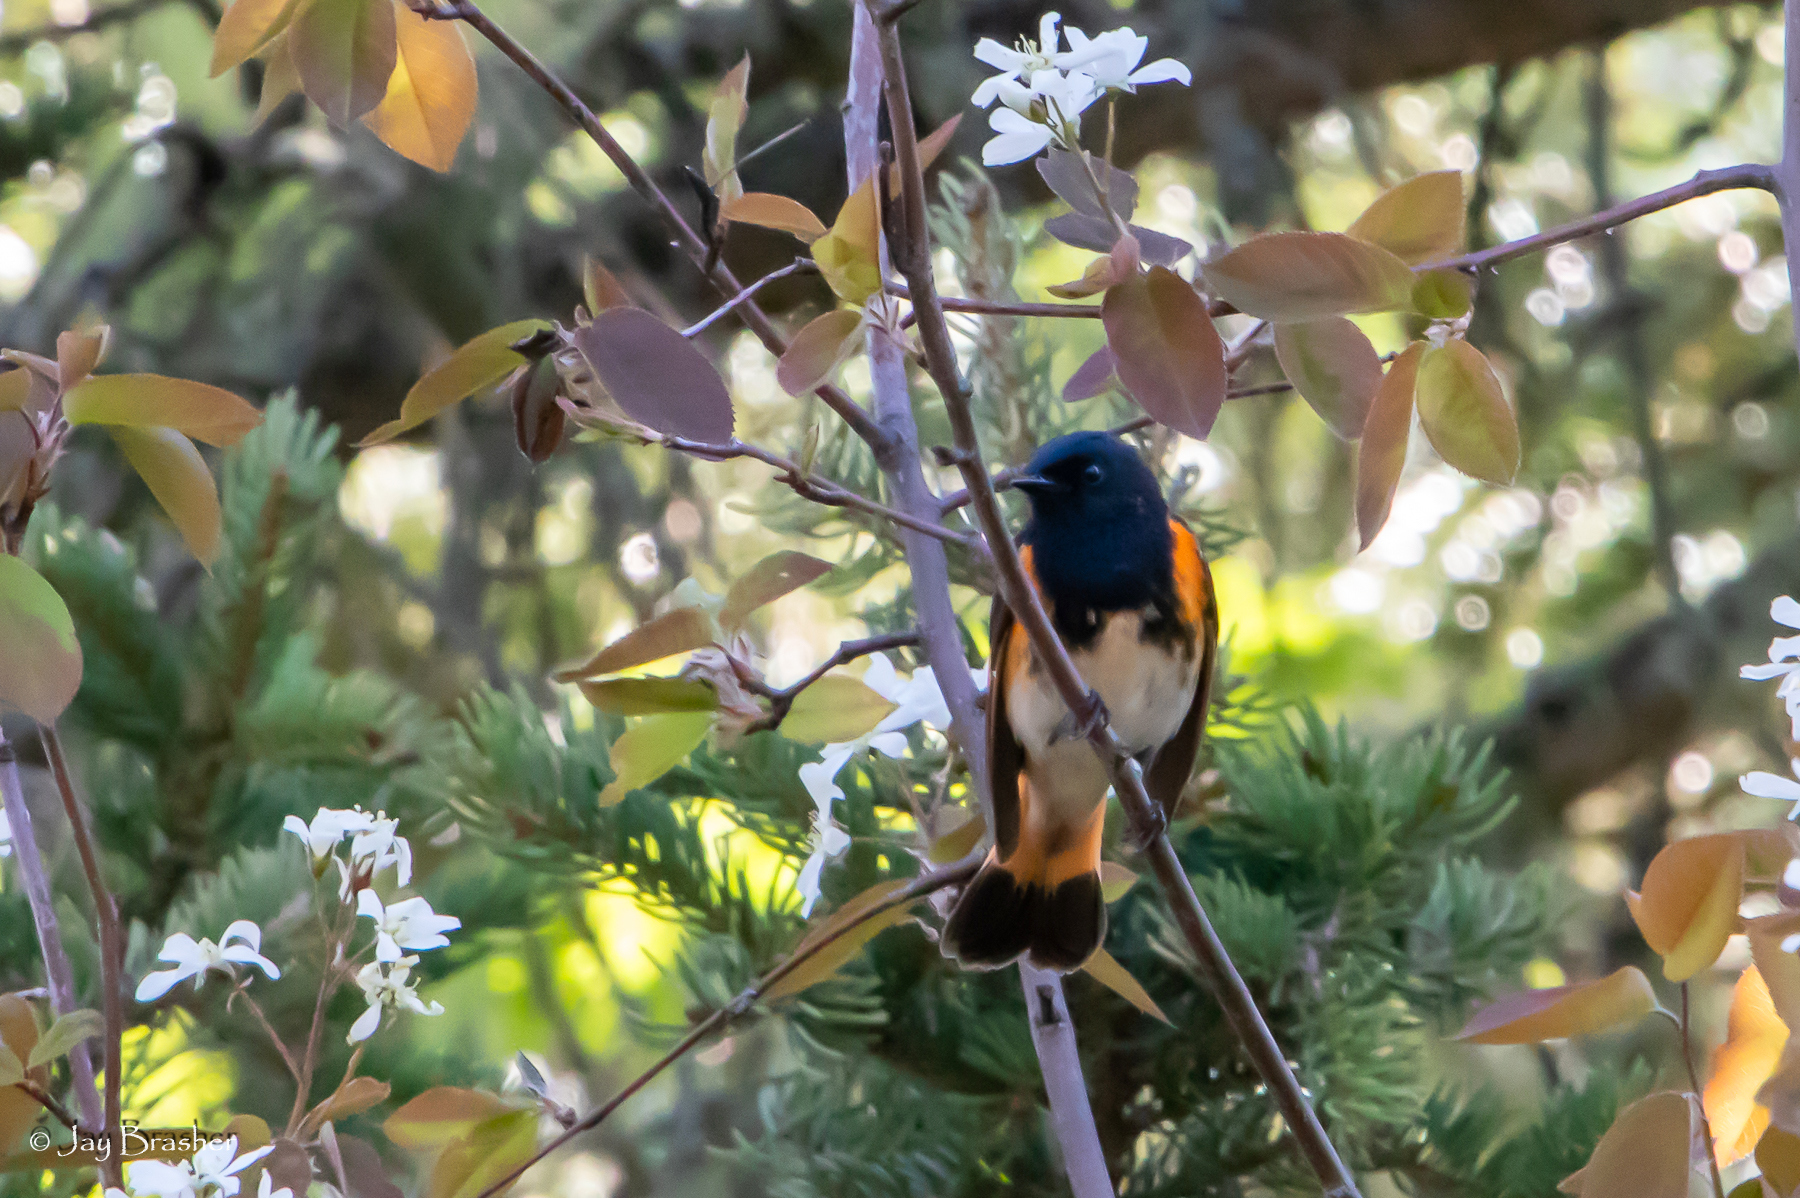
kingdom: Animalia
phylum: Chordata
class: Aves
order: Passeriformes
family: Parulidae
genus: Setophaga
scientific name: Setophaga ruticilla
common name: American redstart
